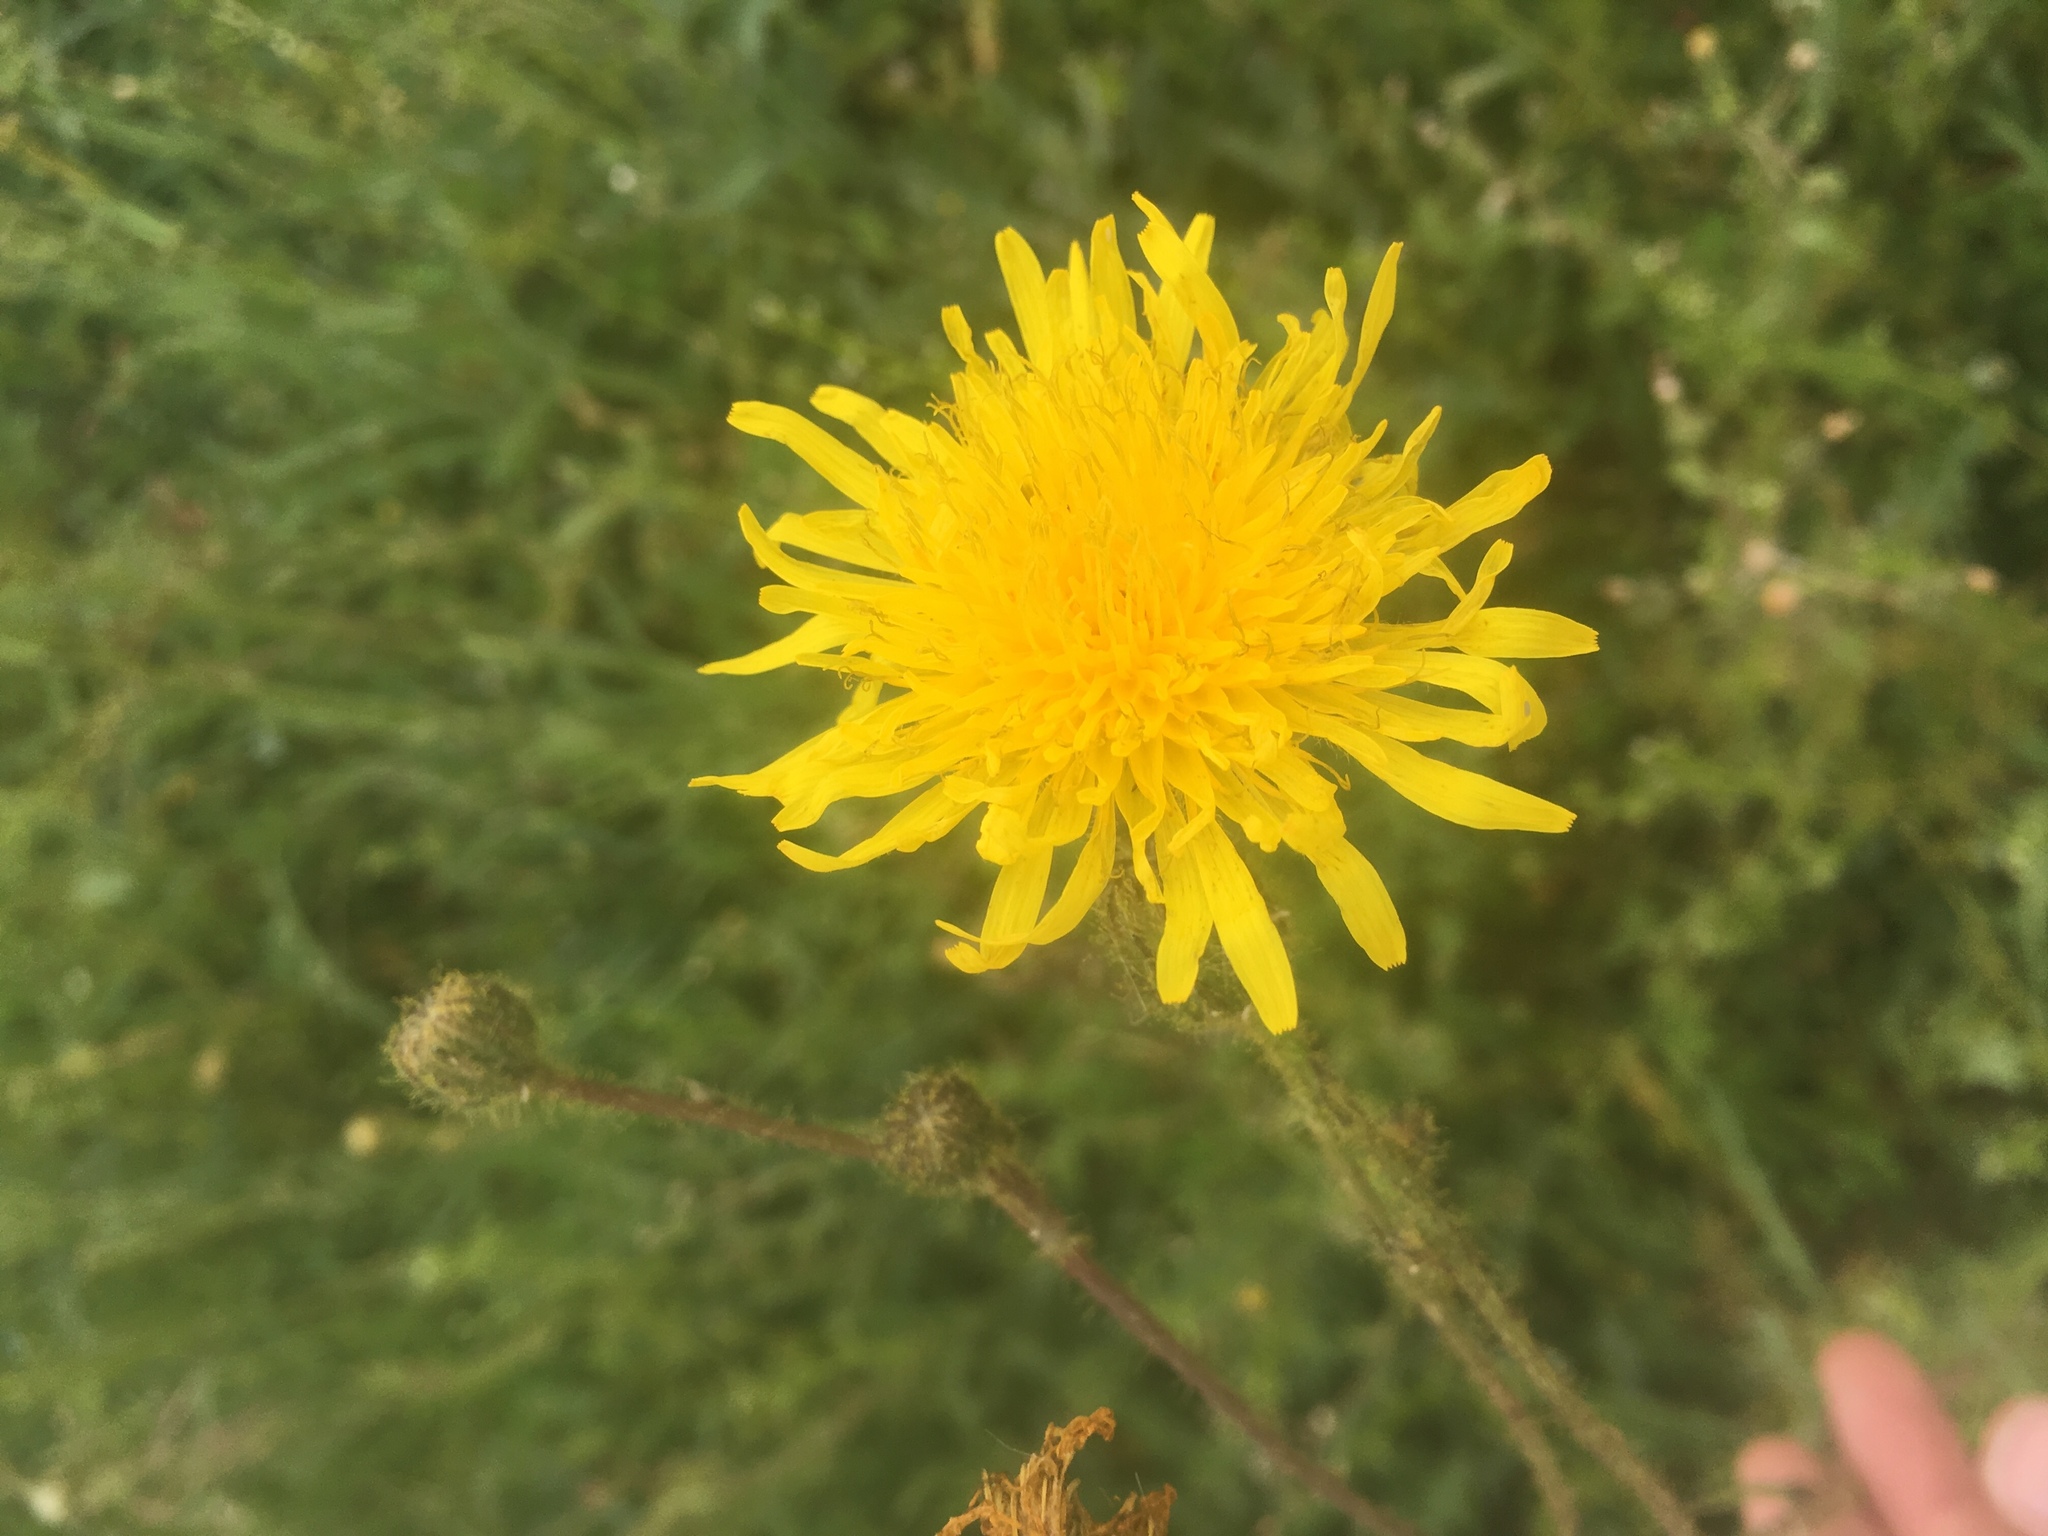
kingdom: Plantae
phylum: Tracheophyta
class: Magnoliopsida
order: Asterales
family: Asteraceae
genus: Sonchus
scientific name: Sonchus arvensis
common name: Perennial sow-thistle
